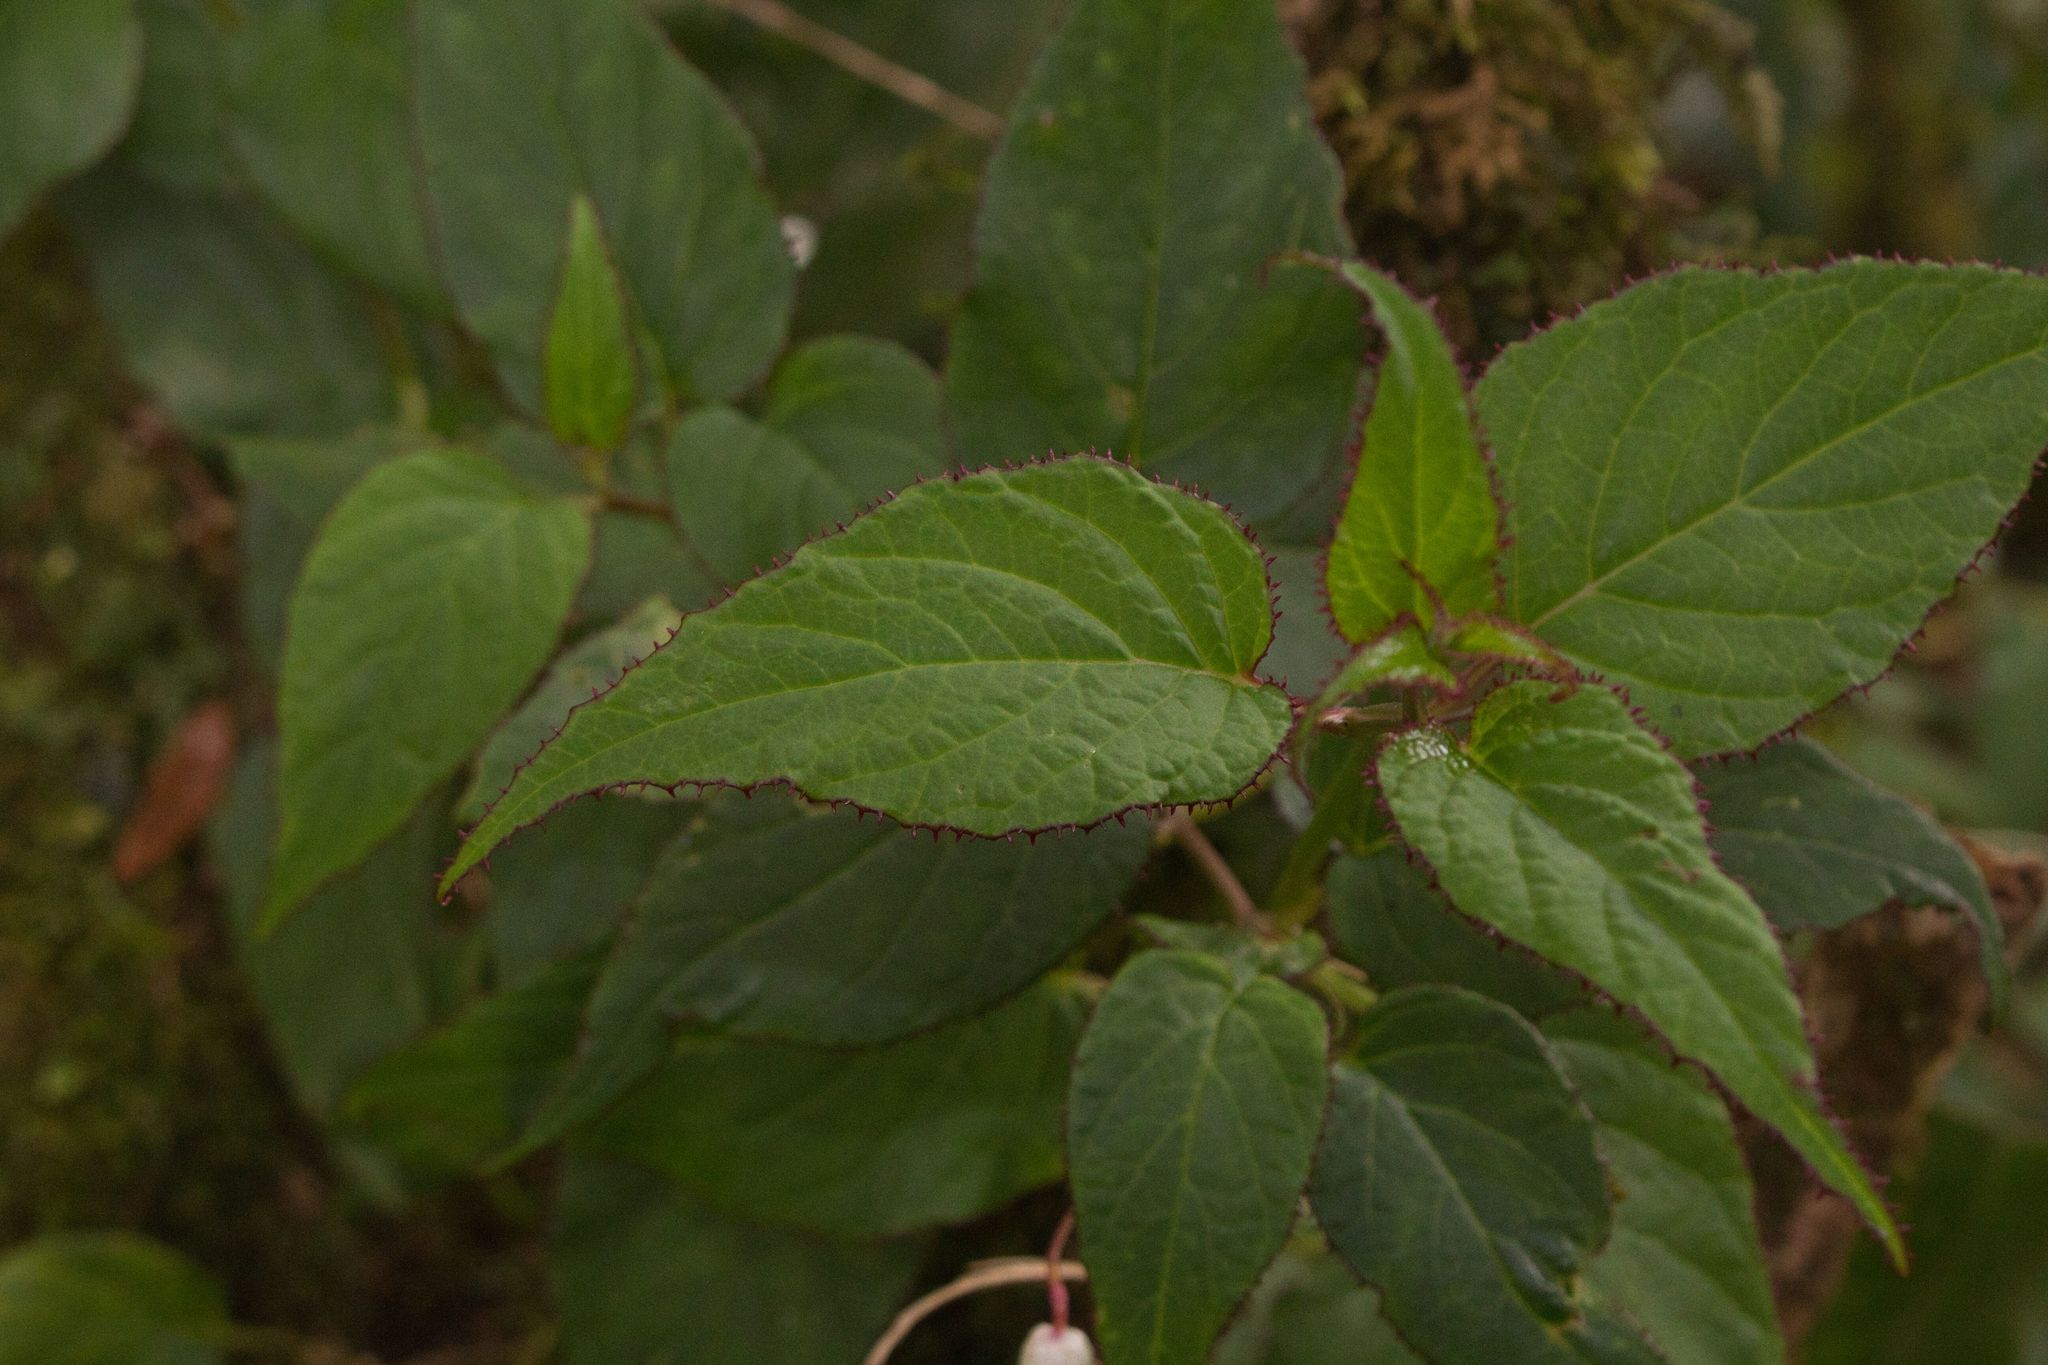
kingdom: Plantae
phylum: Tracheophyta
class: Magnoliopsida
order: Asterales
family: Campanulaceae
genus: Centropogon
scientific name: Centropogon costaricae
